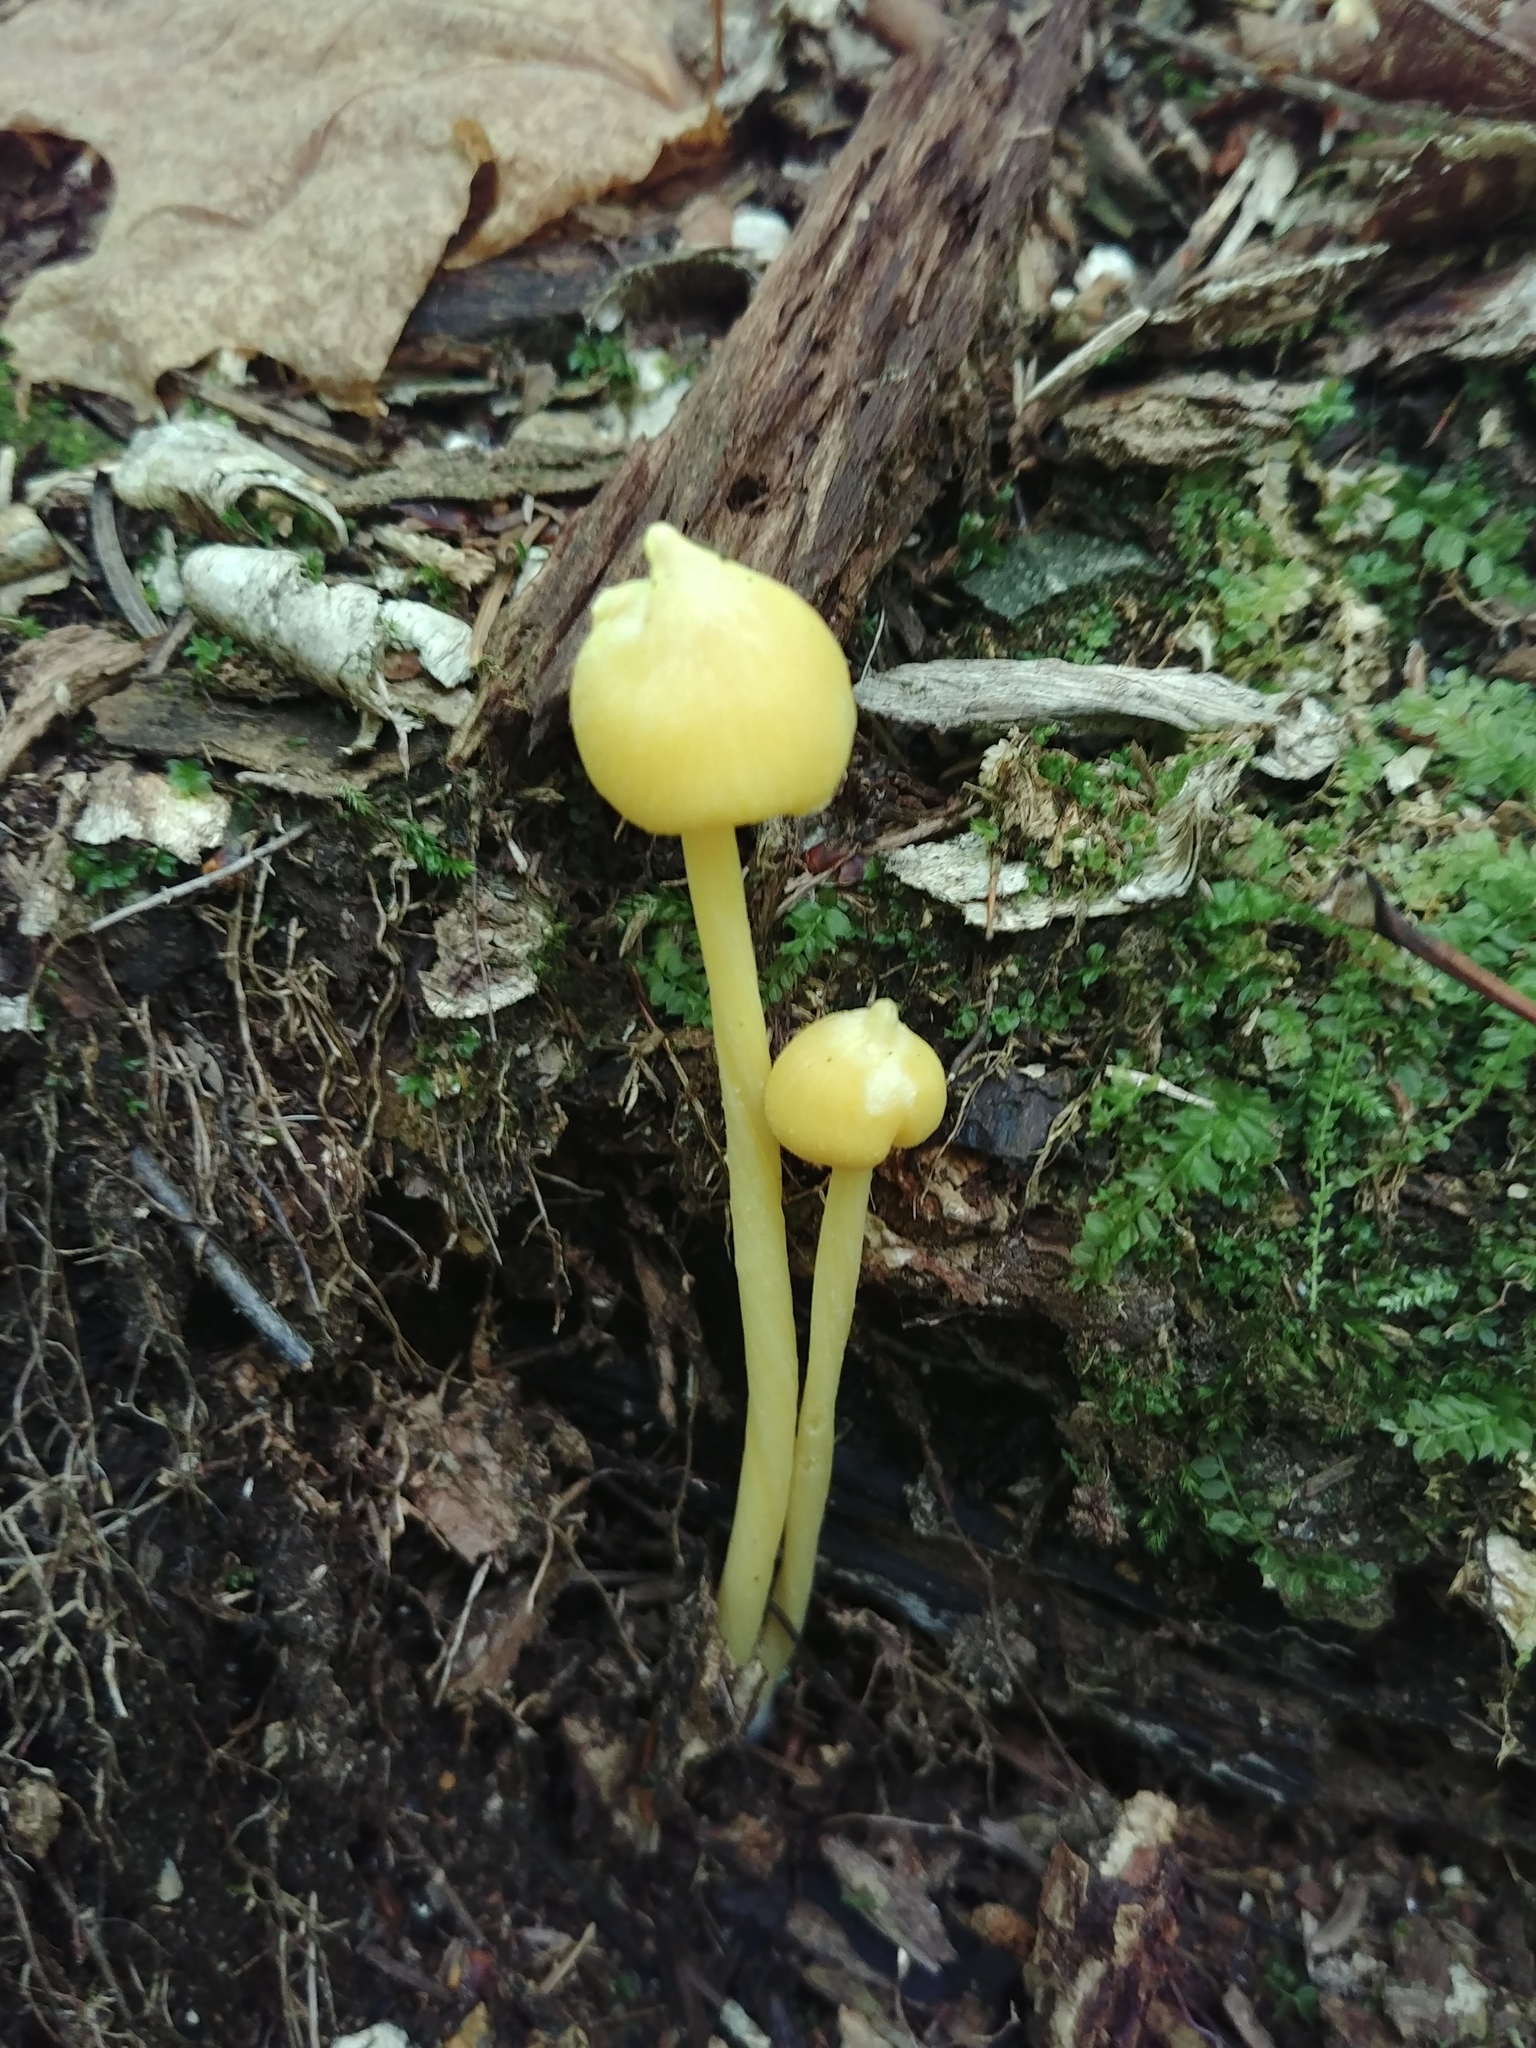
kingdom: Fungi
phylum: Basidiomycota
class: Agaricomycetes
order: Agaricales
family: Entolomataceae
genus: Entoloma
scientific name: Entoloma murrayi
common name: Yellow unicorn entoloma
